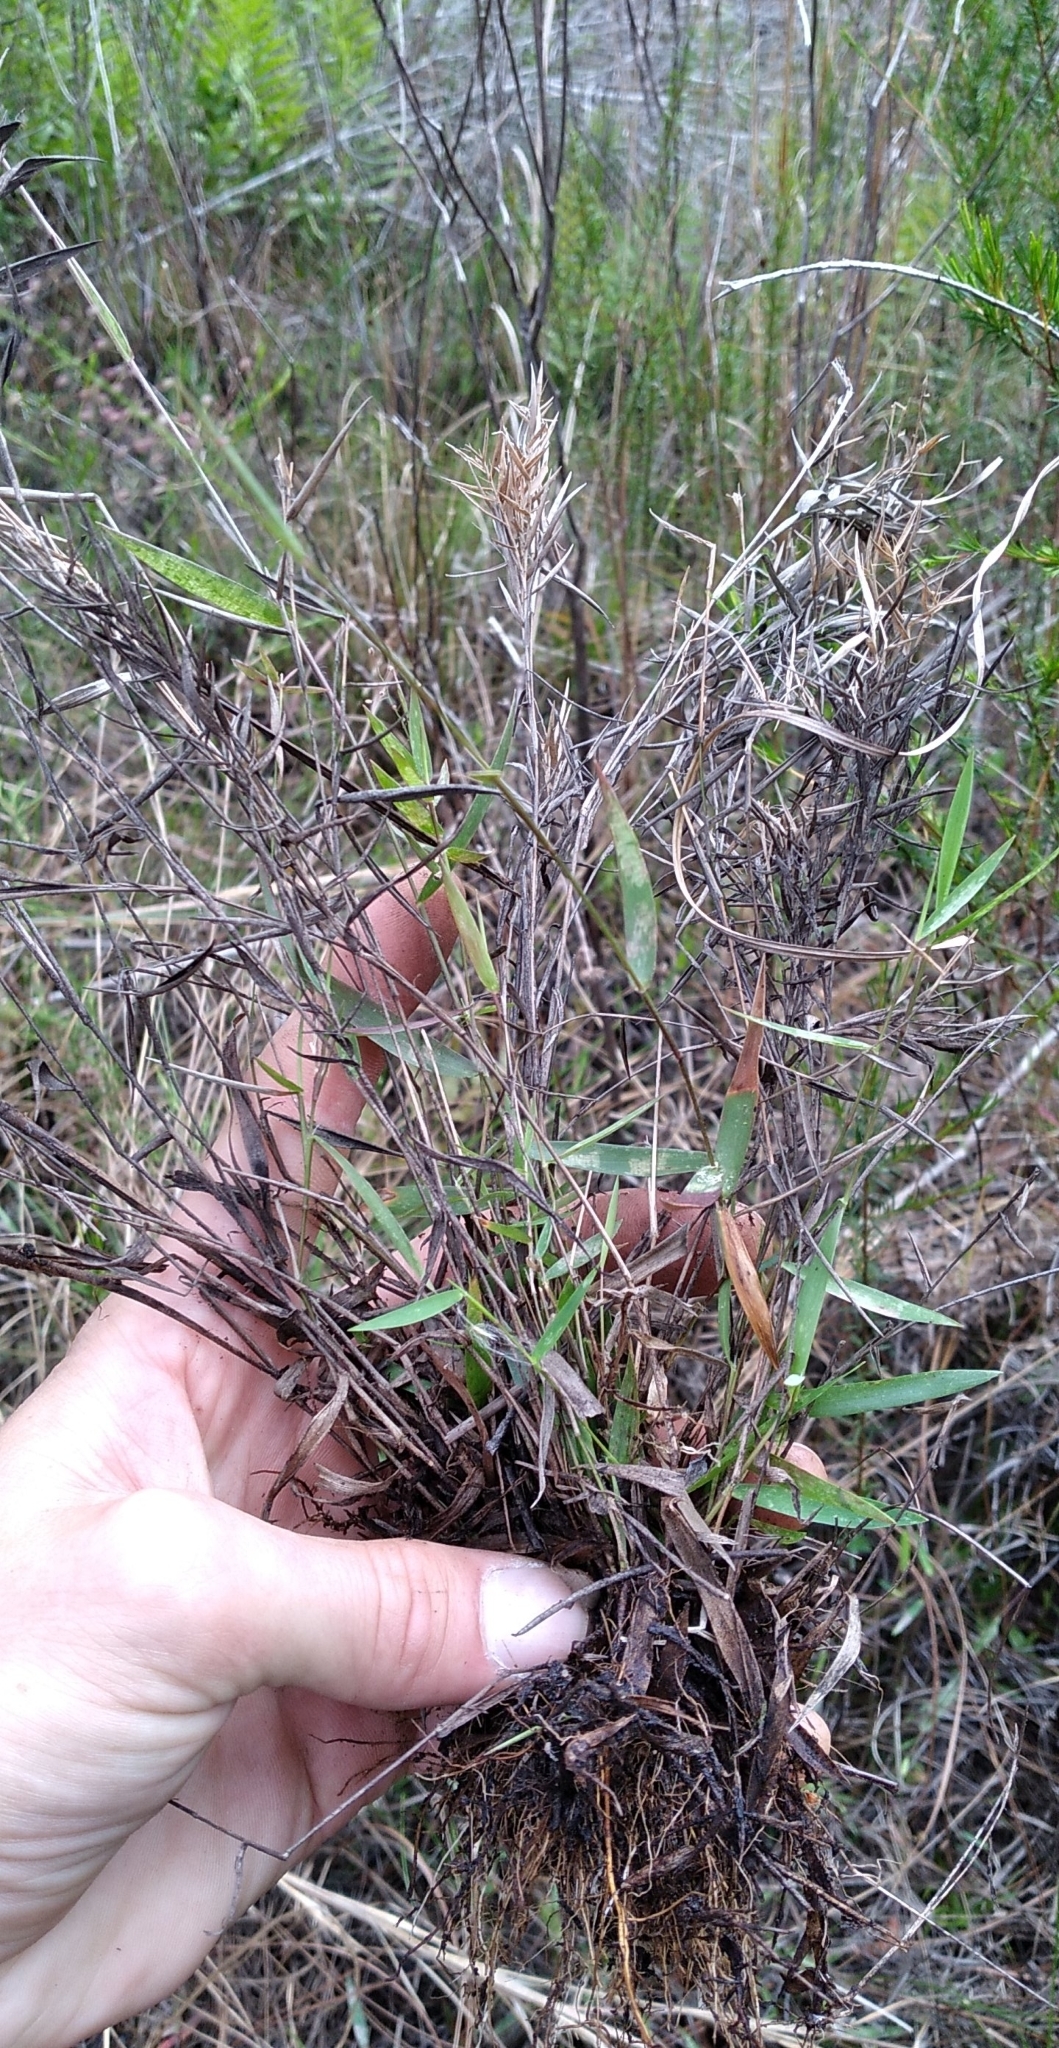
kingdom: Plantae
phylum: Tracheophyta
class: Liliopsida
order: Poales
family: Poaceae
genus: Dichanthelium
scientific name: Dichanthelium leucothrix
